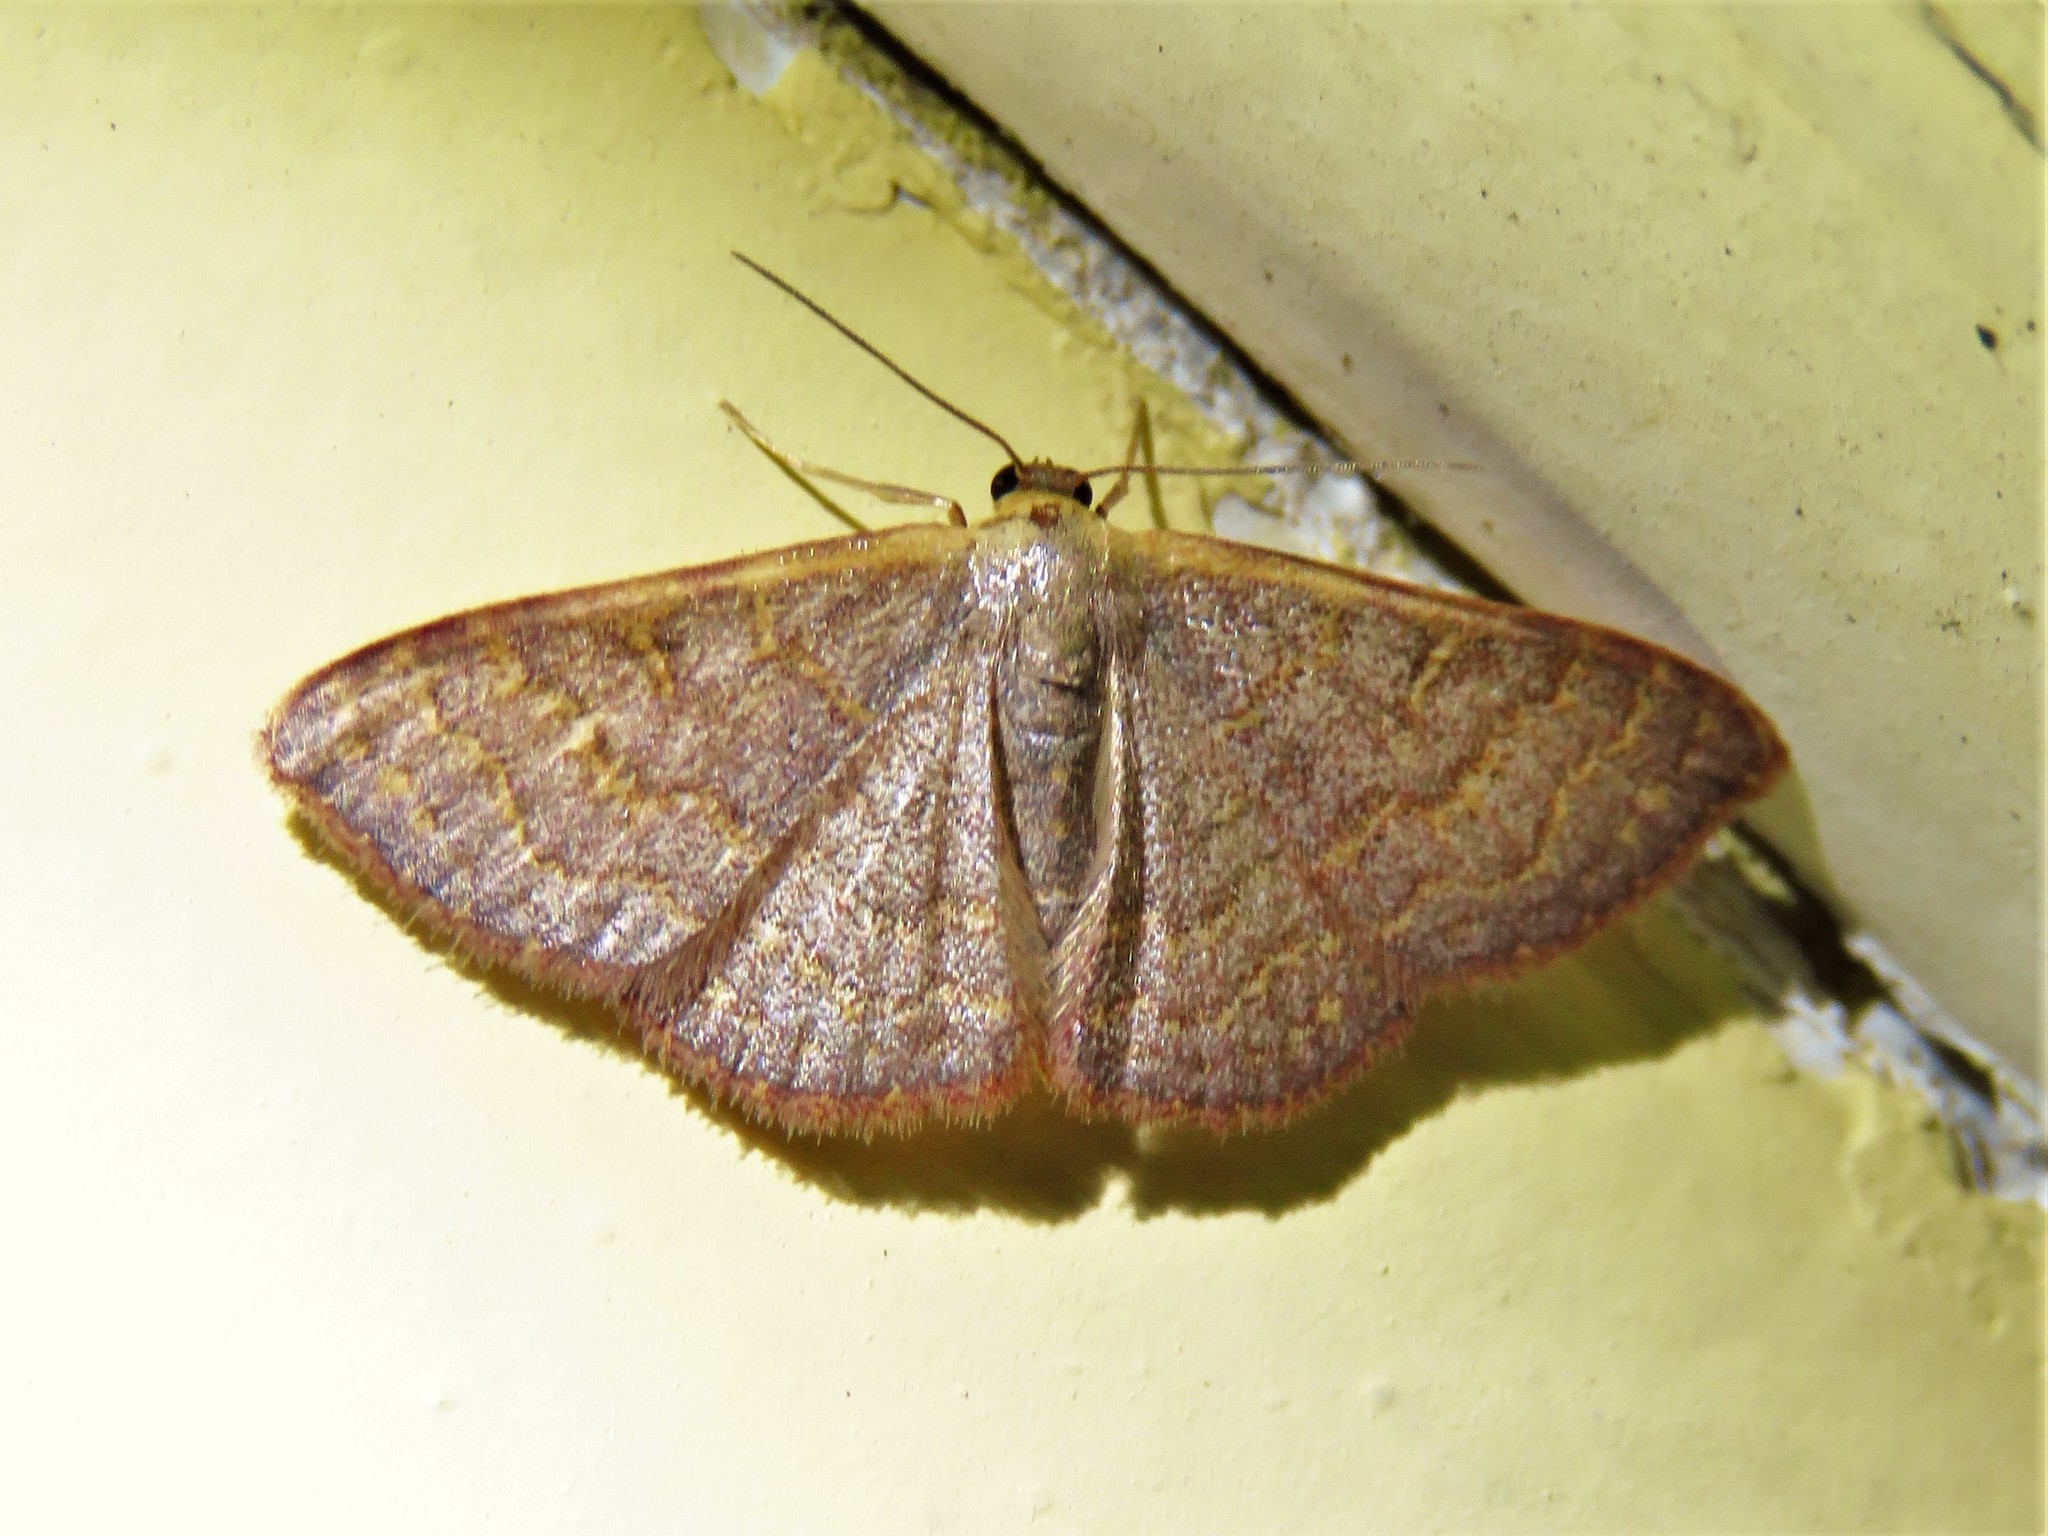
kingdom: Animalia
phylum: Arthropoda
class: Insecta
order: Lepidoptera
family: Geometridae
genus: Leptostales
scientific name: Leptostales pannaria
